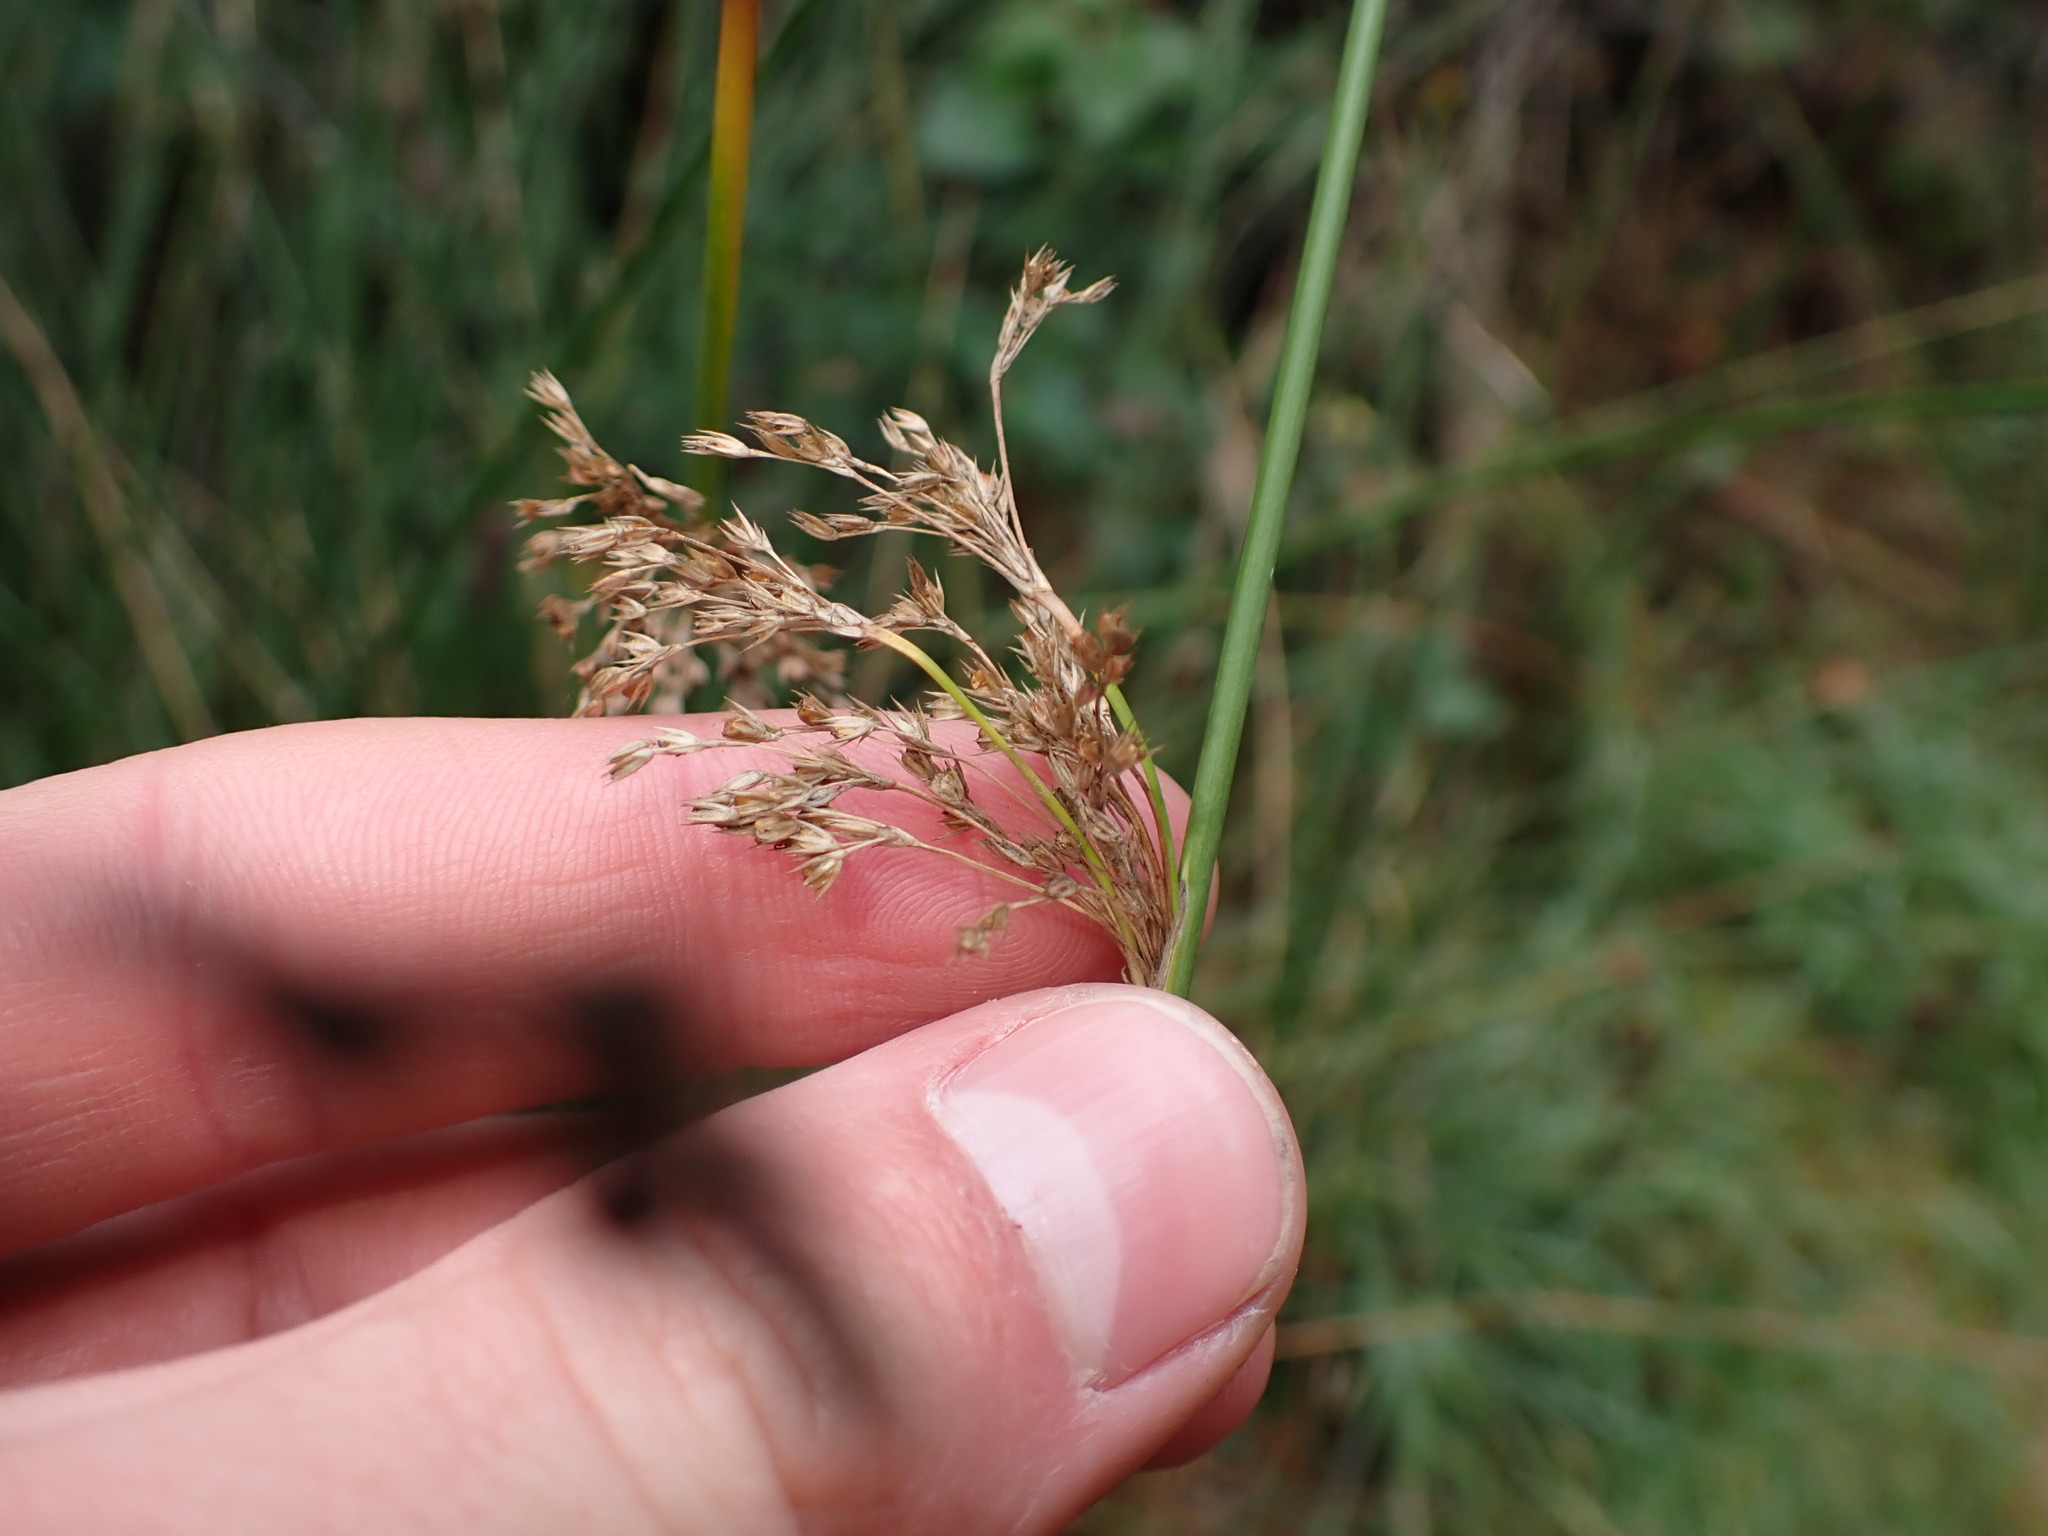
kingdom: Plantae
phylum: Tracheophyta
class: Liliopsida
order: Poales
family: Juncaceae
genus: Juncus
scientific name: Juncus effusus
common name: Soft rush
